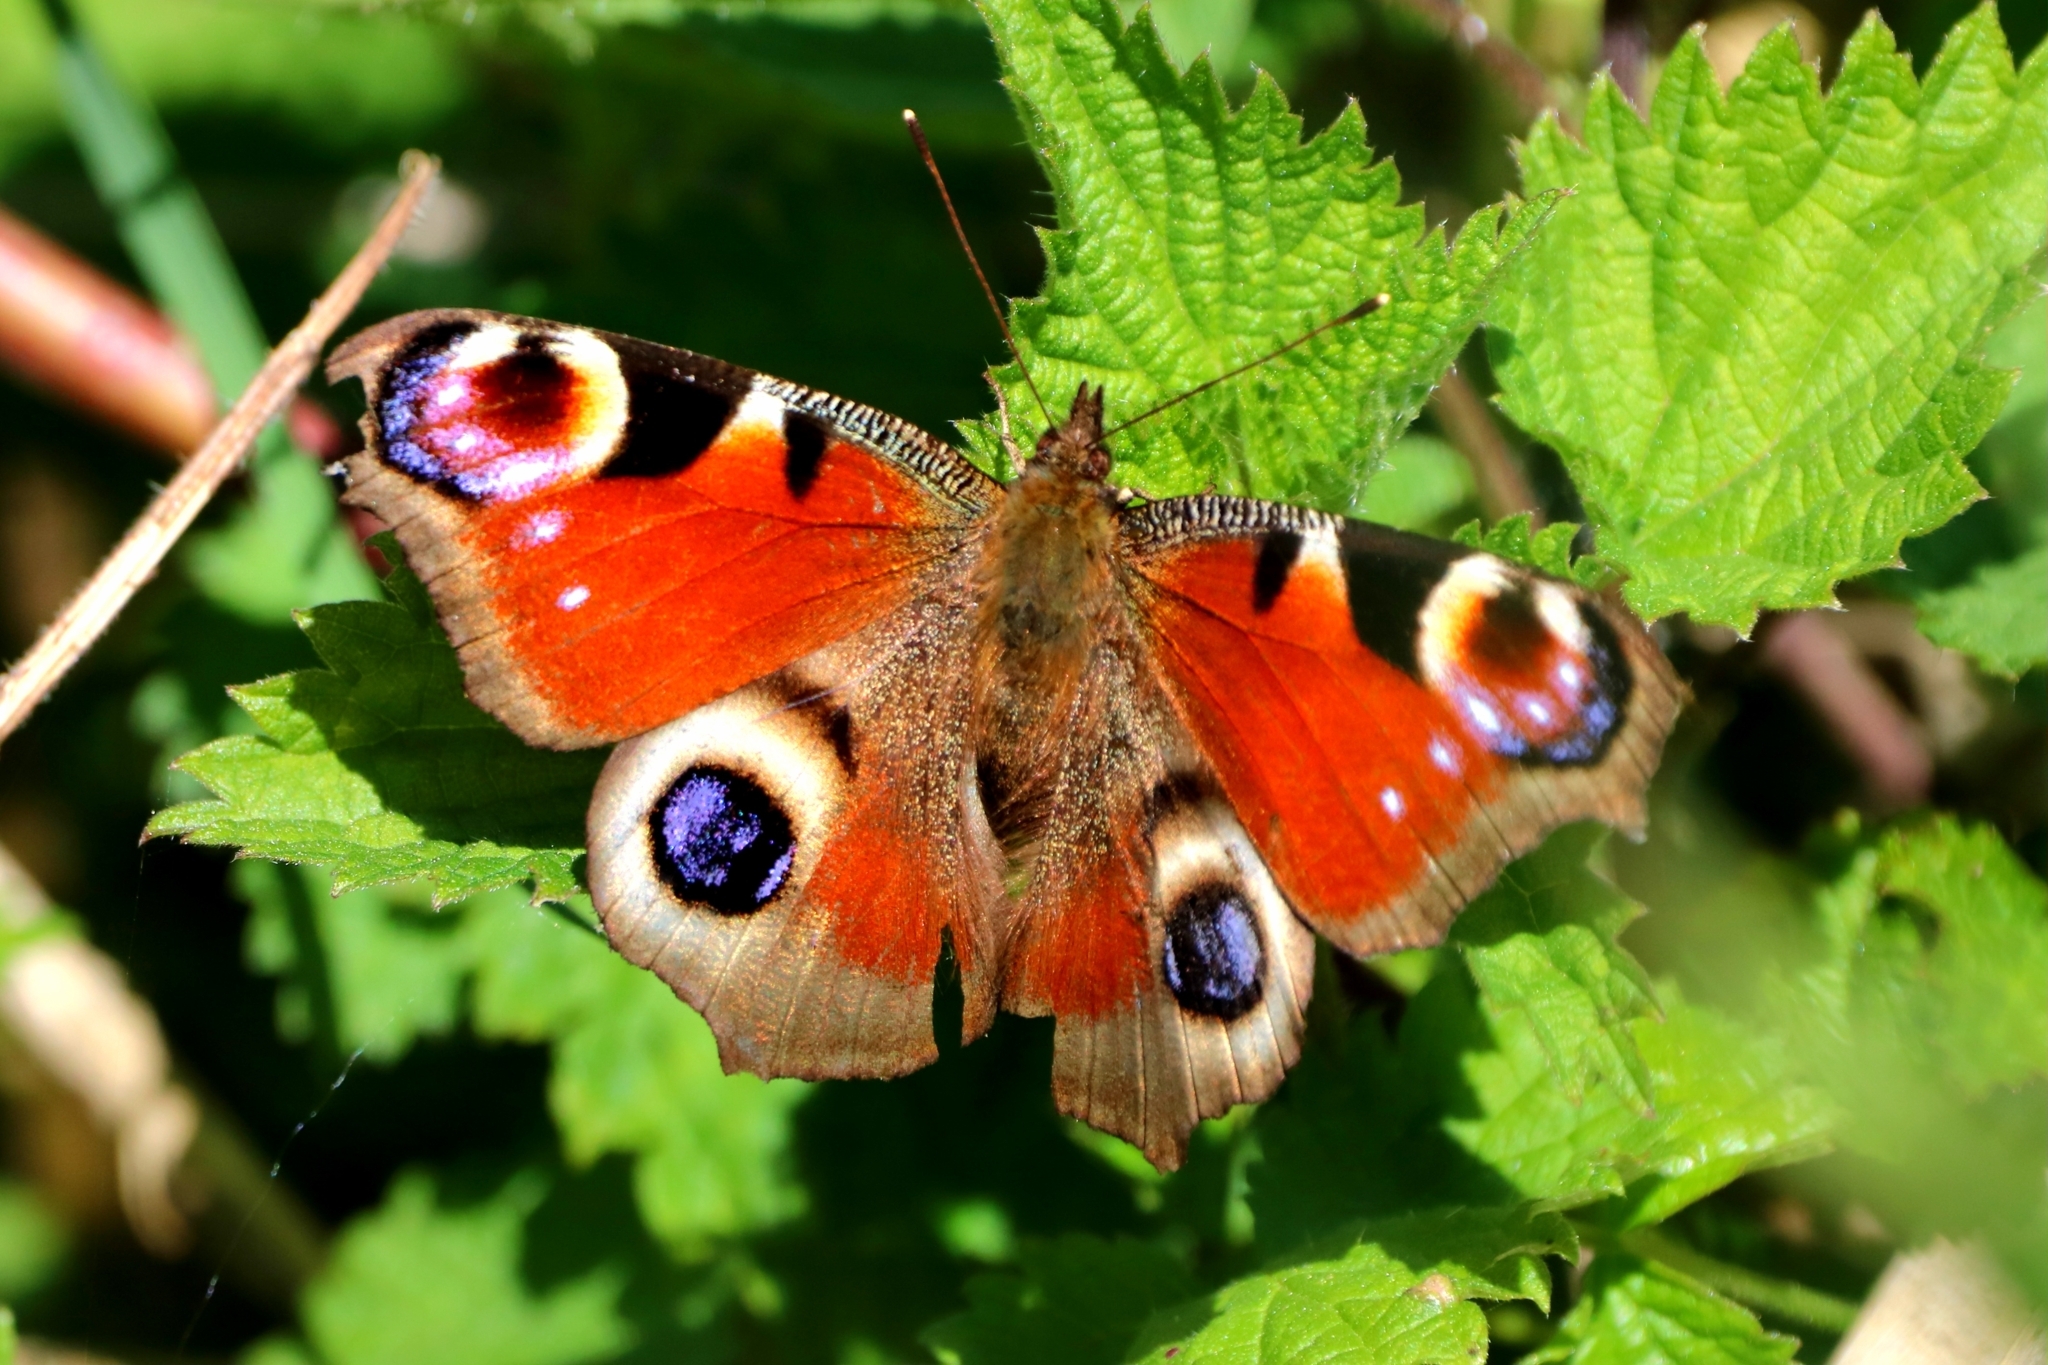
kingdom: Animalia
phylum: Arthropoda
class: Insecta
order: Lepidoptera
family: Nymphalidae
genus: Aglais
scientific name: Aglais io
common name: Peacock
